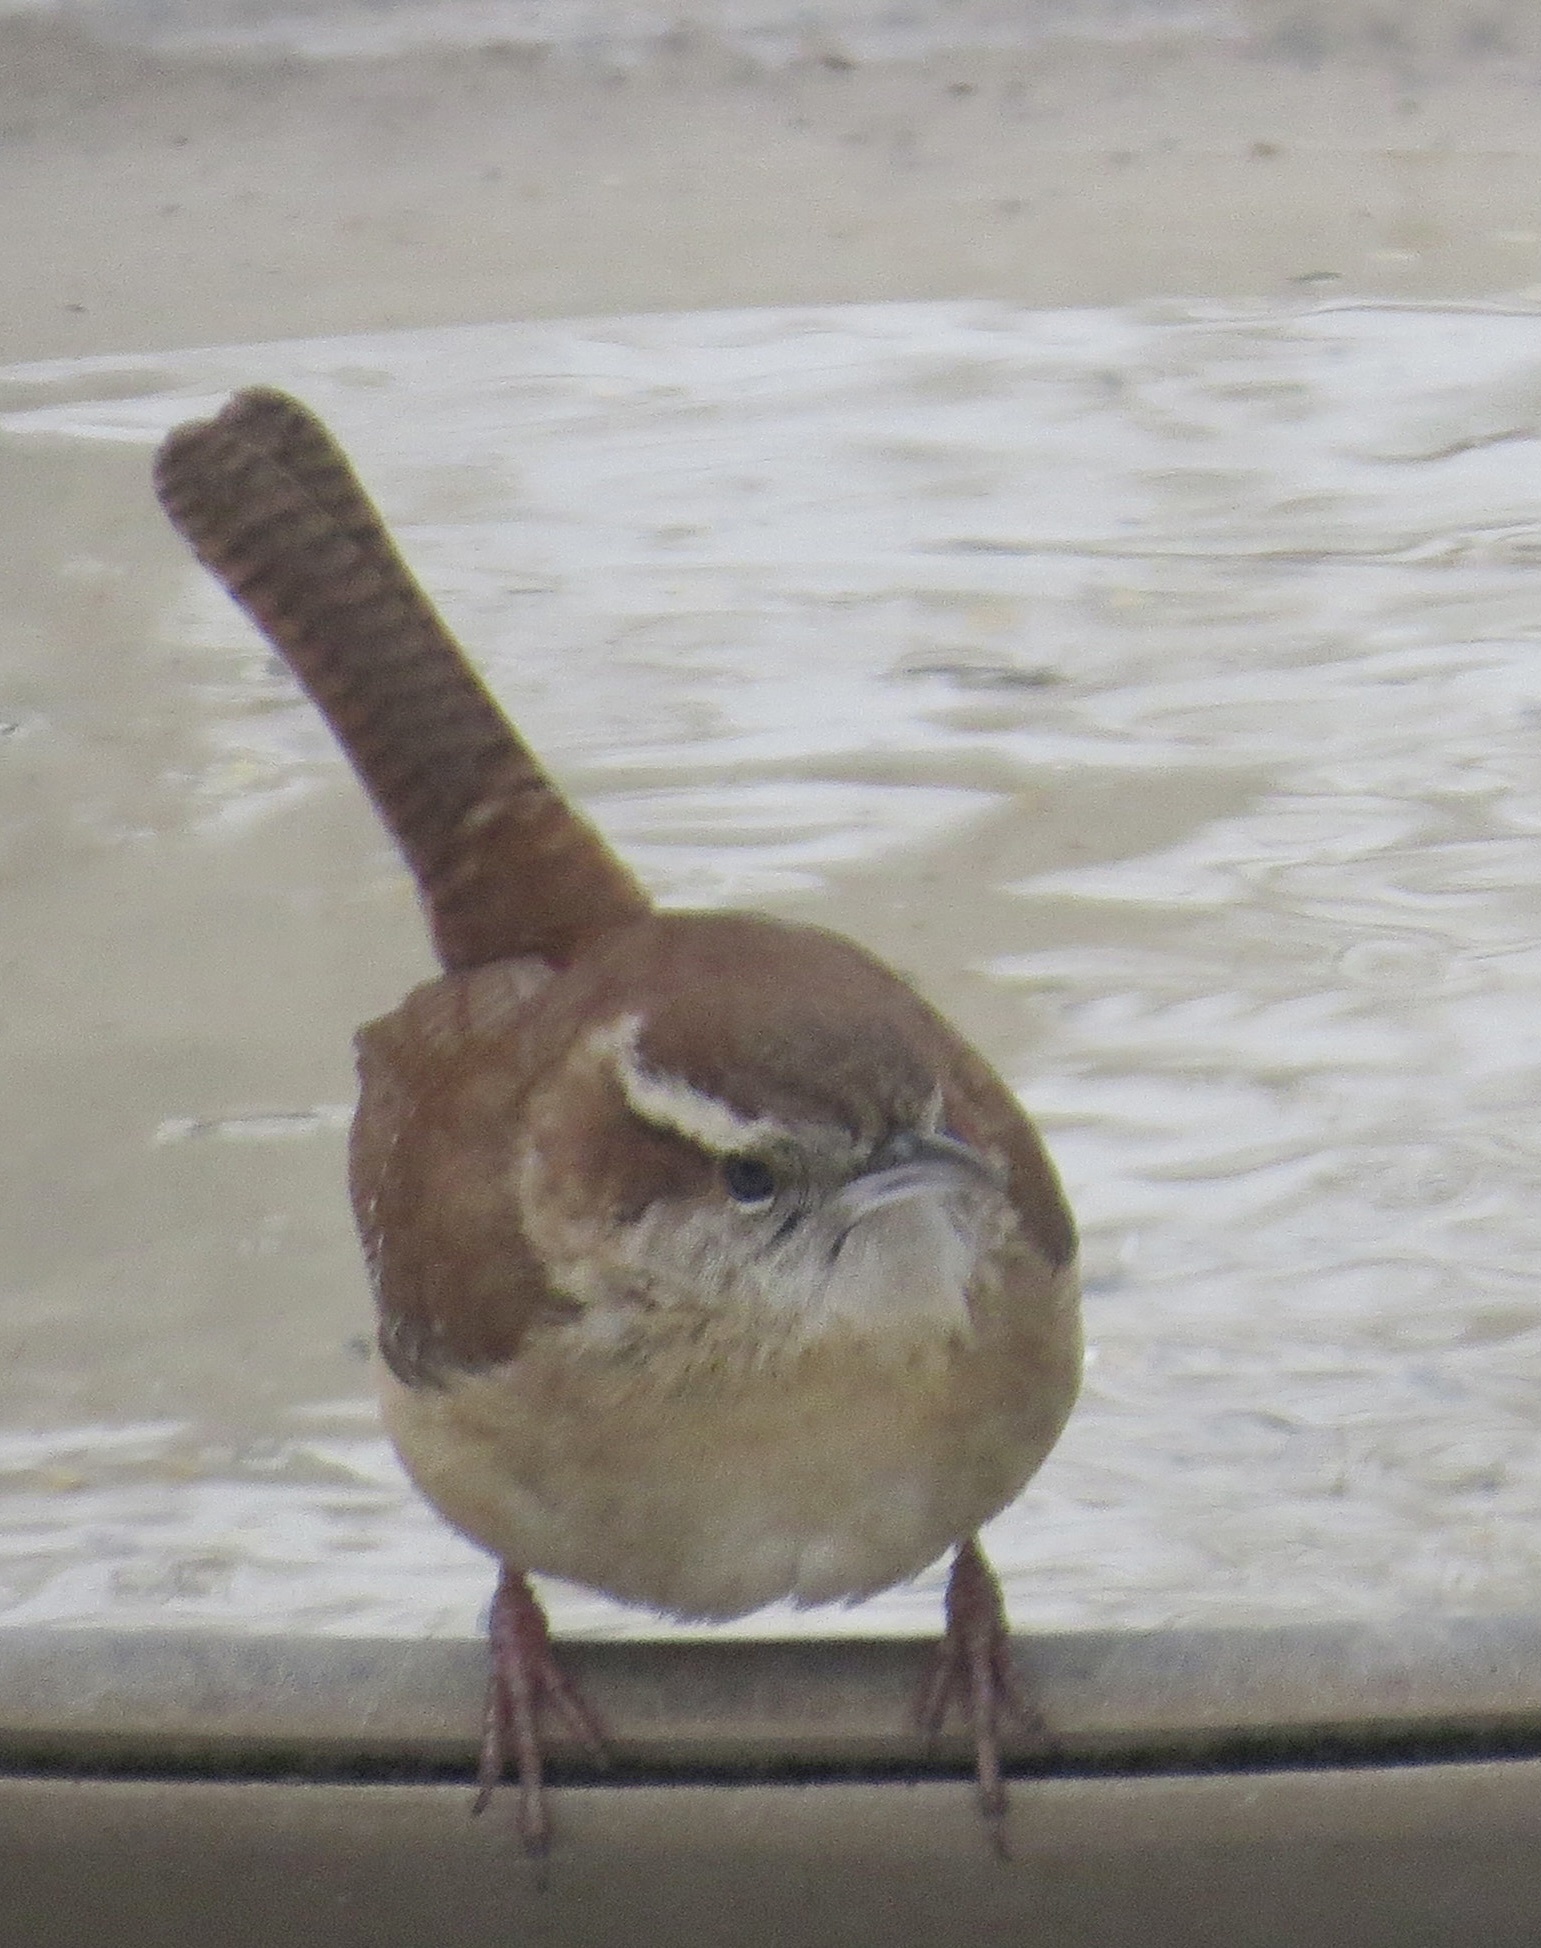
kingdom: Animalia
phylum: Chordata
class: Aves
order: Passeriformes
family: Troglodytidae
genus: Thryothorus
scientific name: Thryothorus ludovicianus
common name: Carolina wren
